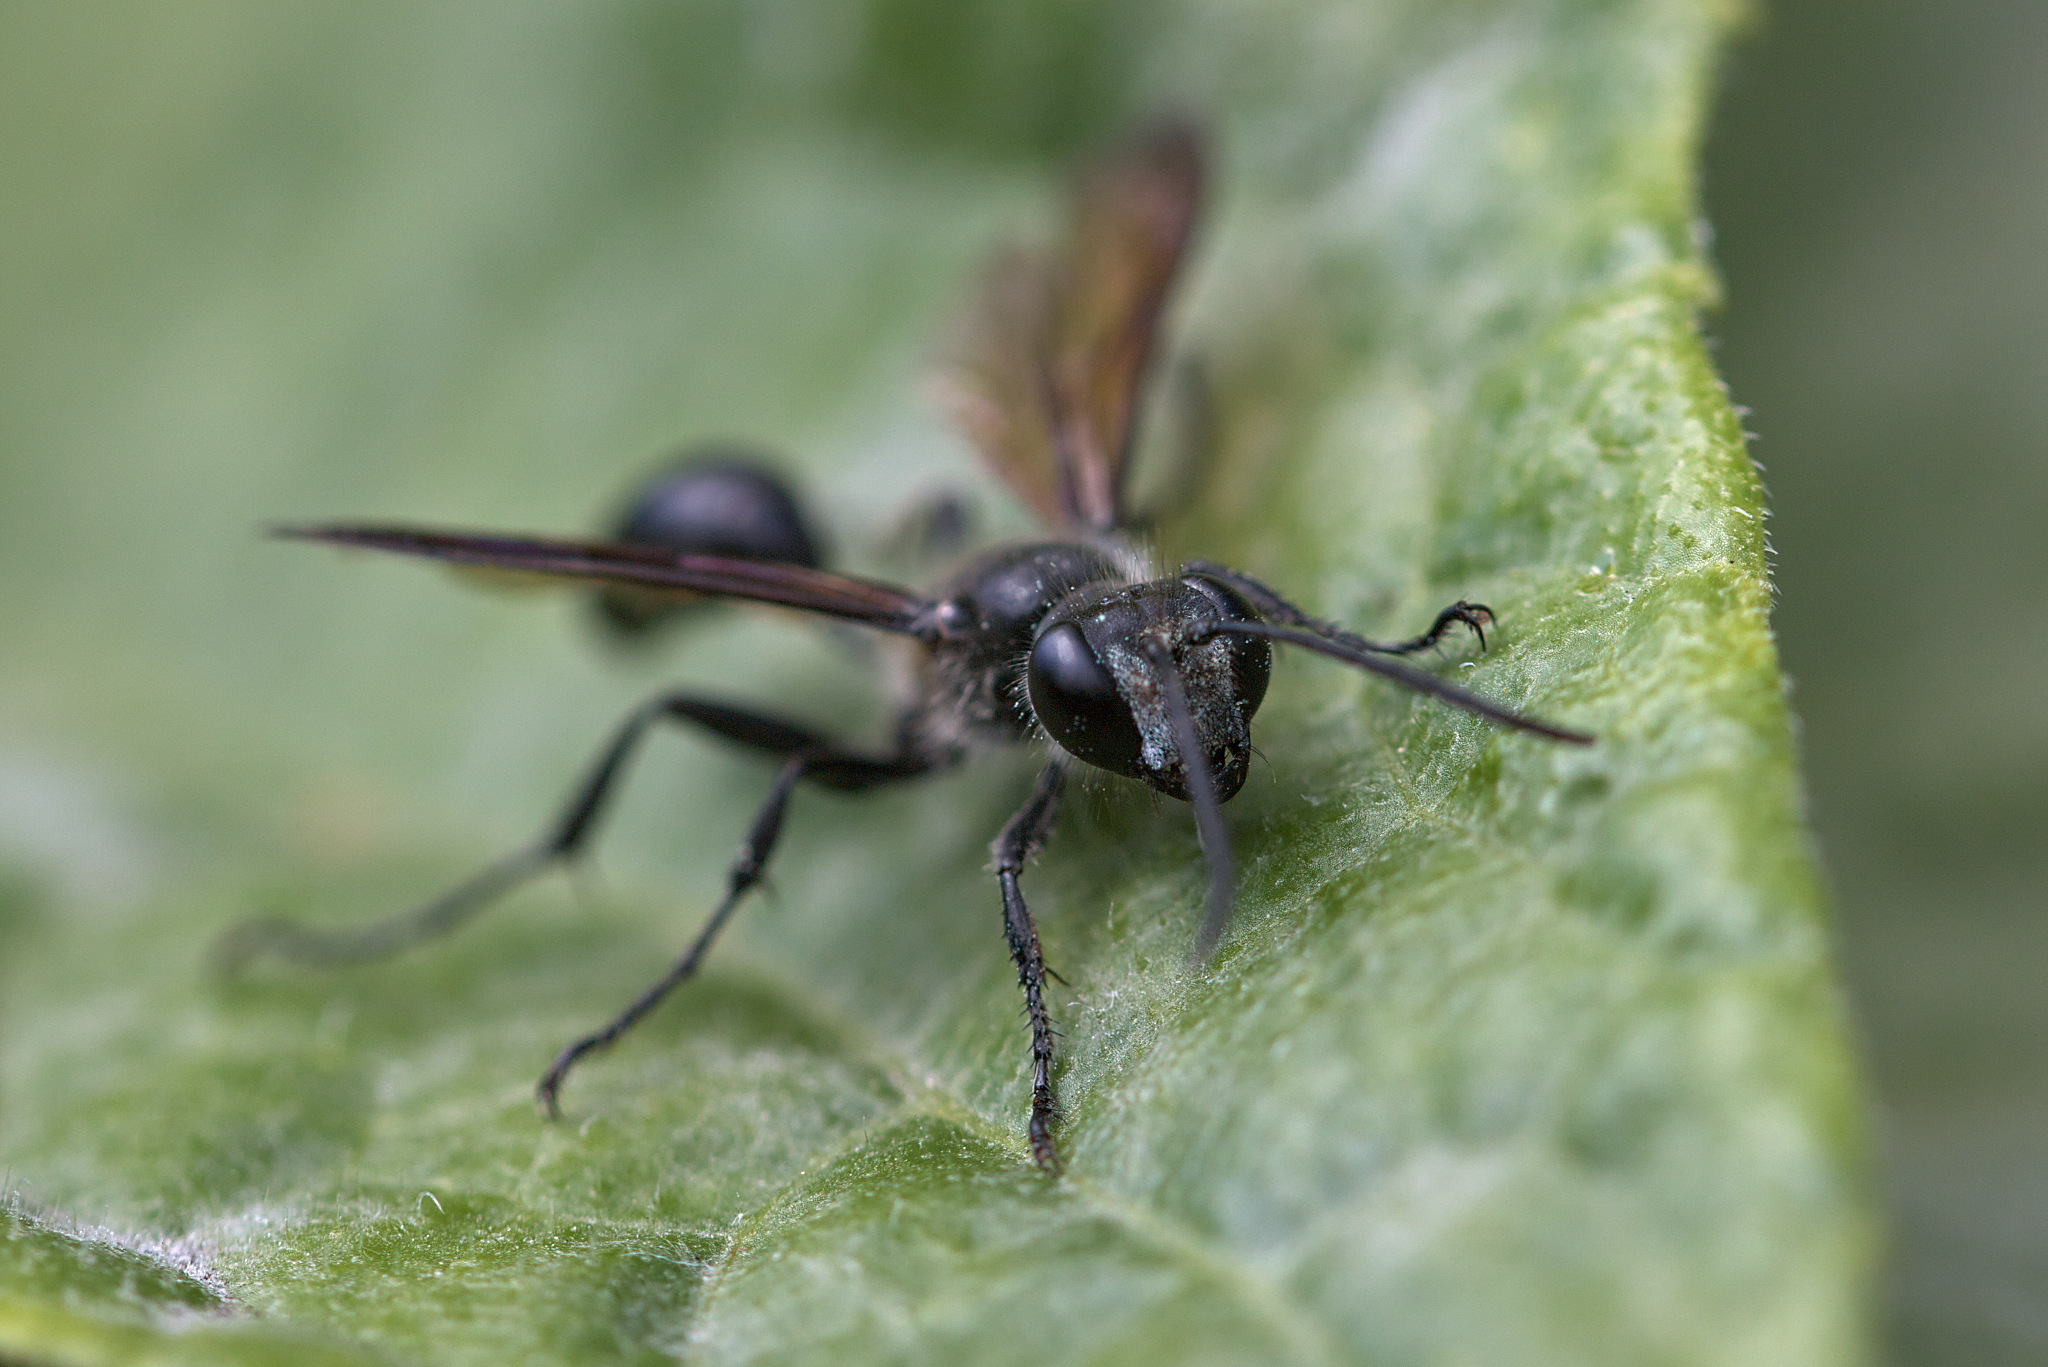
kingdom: Animalia
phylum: Arthropoda
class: Insecta
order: Hymenoptera
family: Sphecidae
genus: Isodontia
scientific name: Isodontia mexicana
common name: Mud dauber
